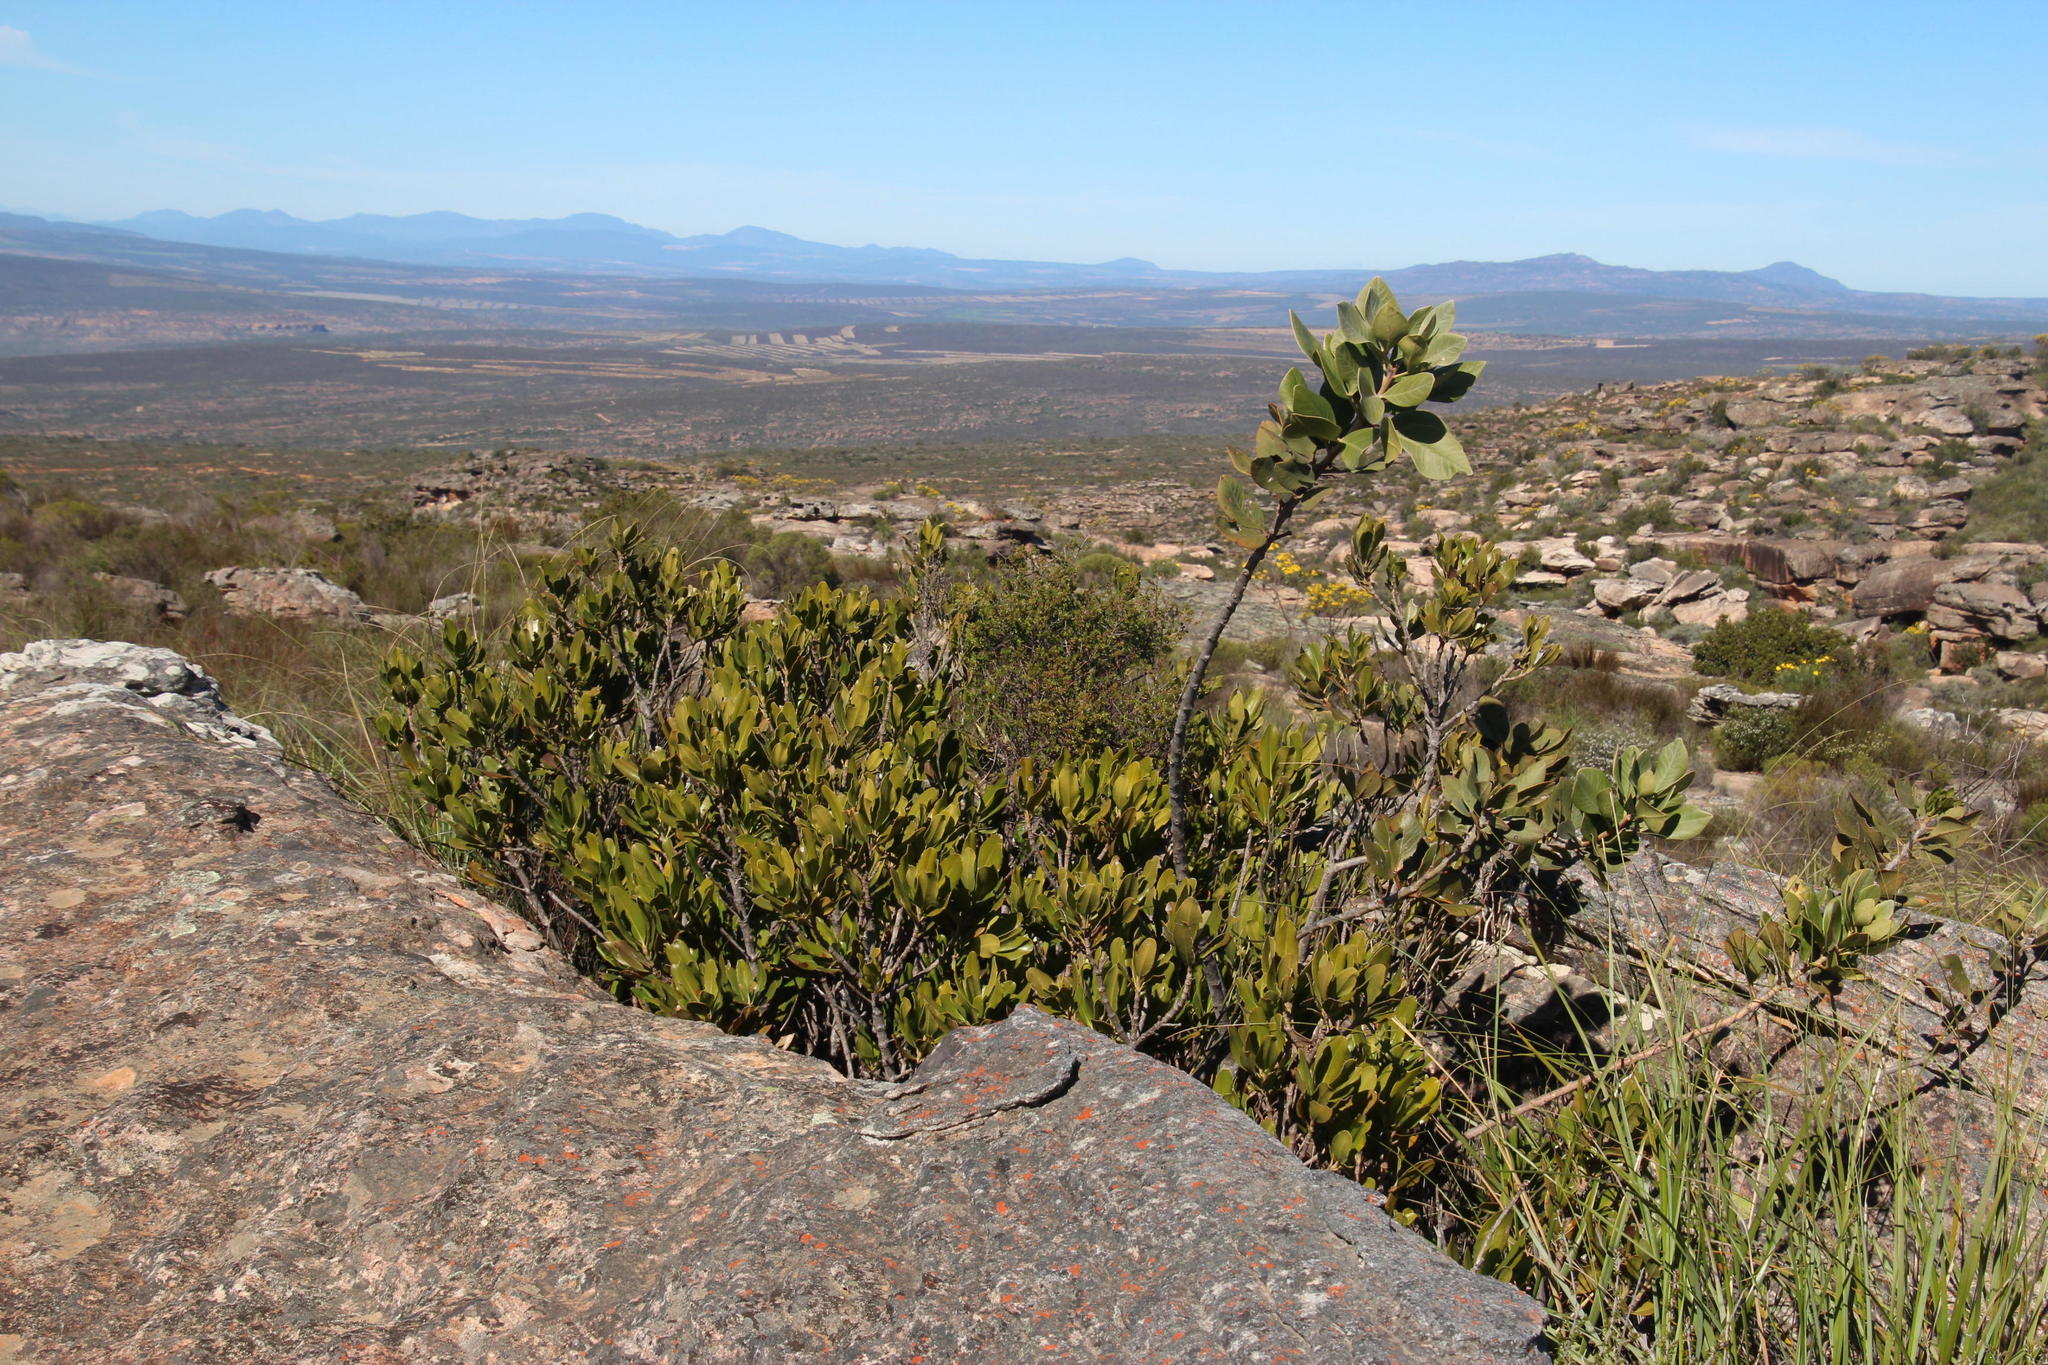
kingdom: Plantae
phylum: Tracheophyta
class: Magnoliopsida
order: Sapindales
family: Anacardiaceae
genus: Searsia
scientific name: Searsia scytophylla
